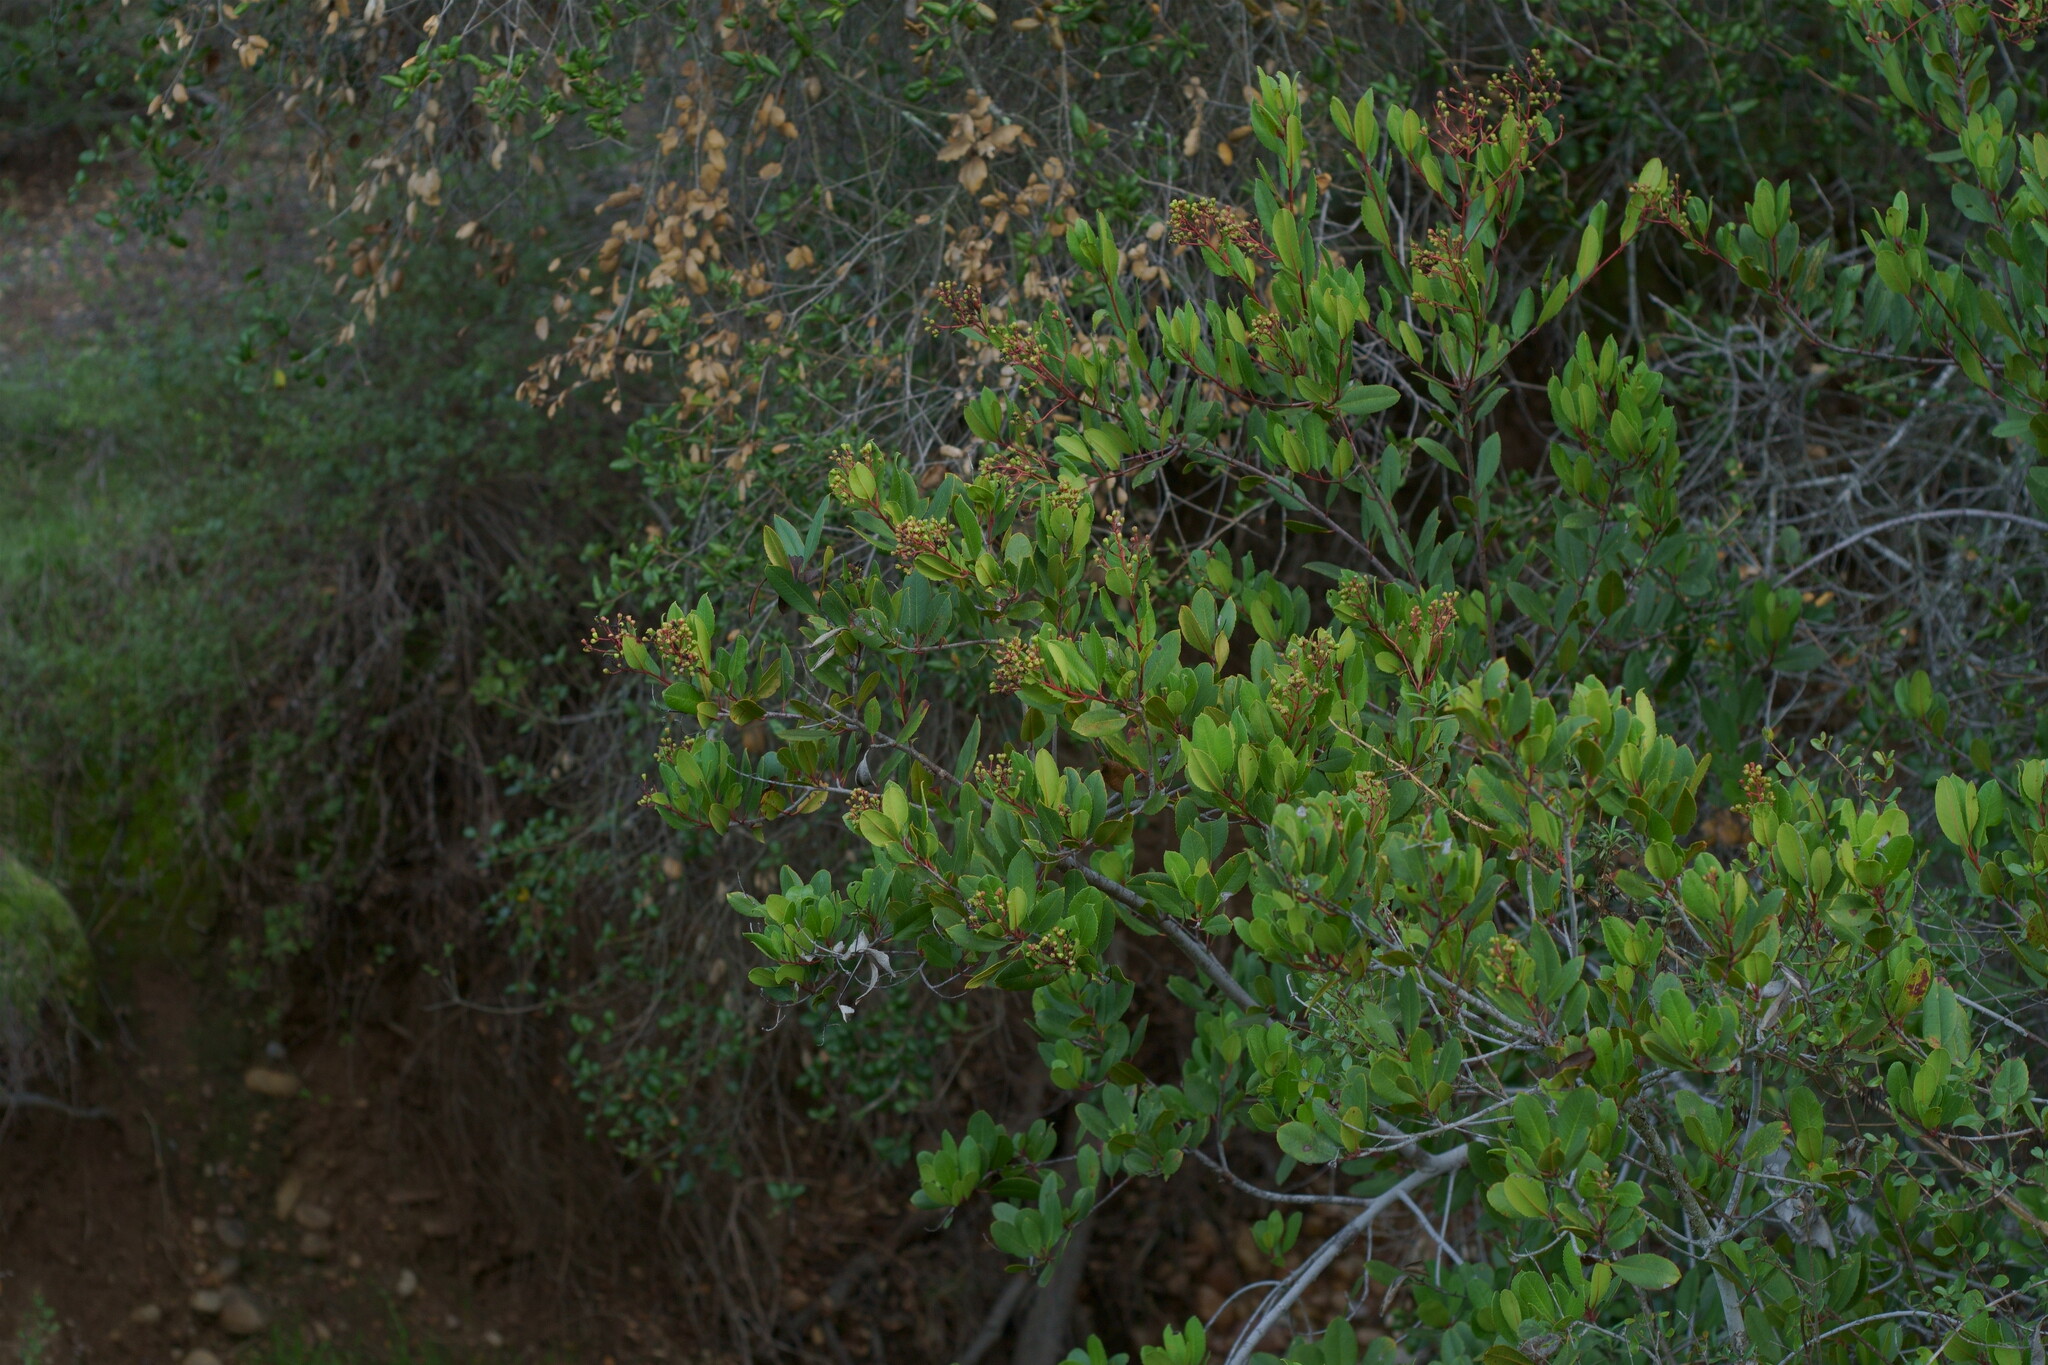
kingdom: Plantae
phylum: Tracheophyta
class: Magnoliopsida
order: Rosales
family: Rosaceae
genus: Heteromeles
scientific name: Heteromeles arbutifolia
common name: California-holly
